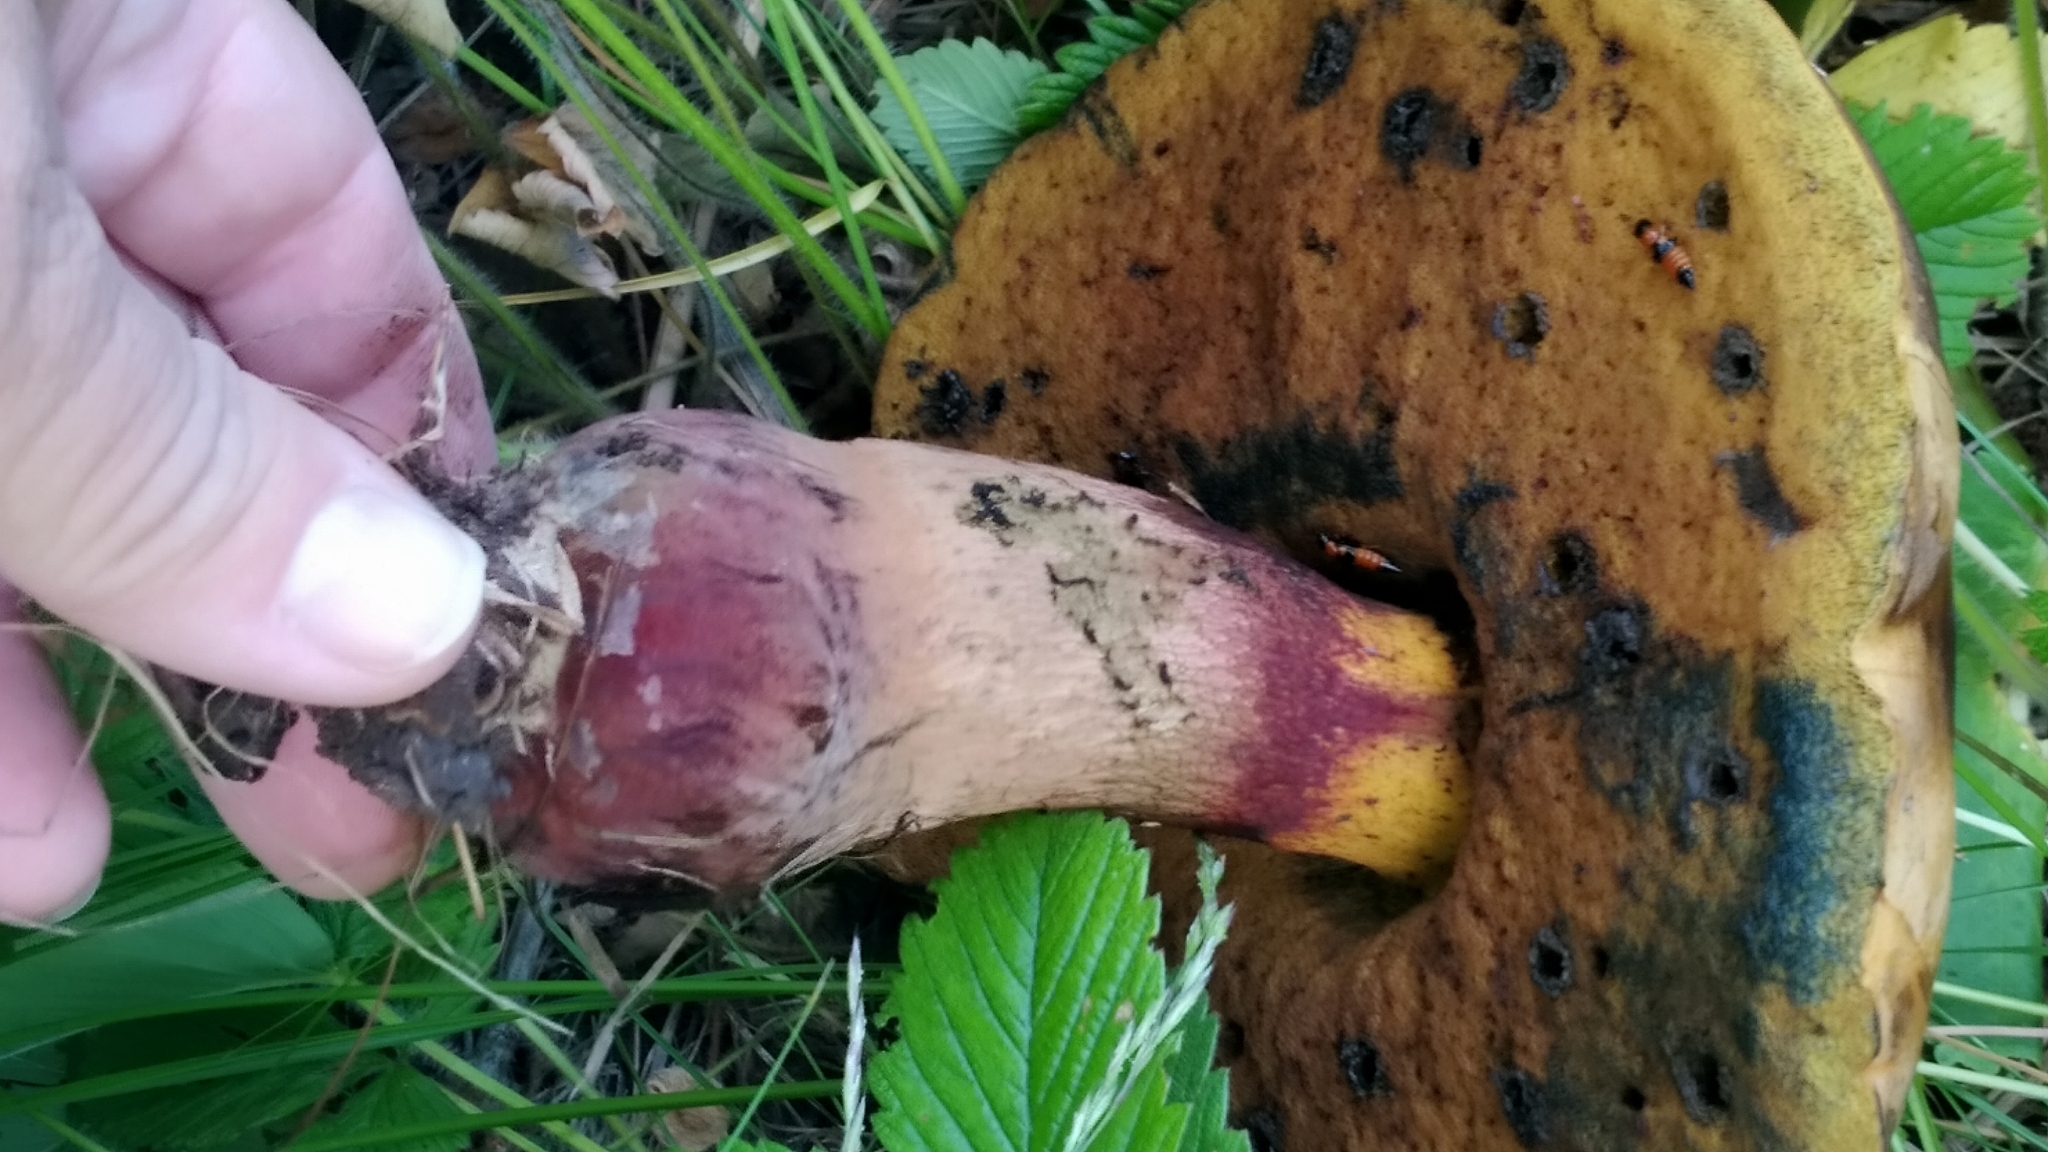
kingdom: Fungi
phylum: Basidiomycota
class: Agaricomycetes
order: Boletales
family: Boletaceae
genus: Suillellus
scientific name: Suillellus luridus
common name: Lurid bolete
